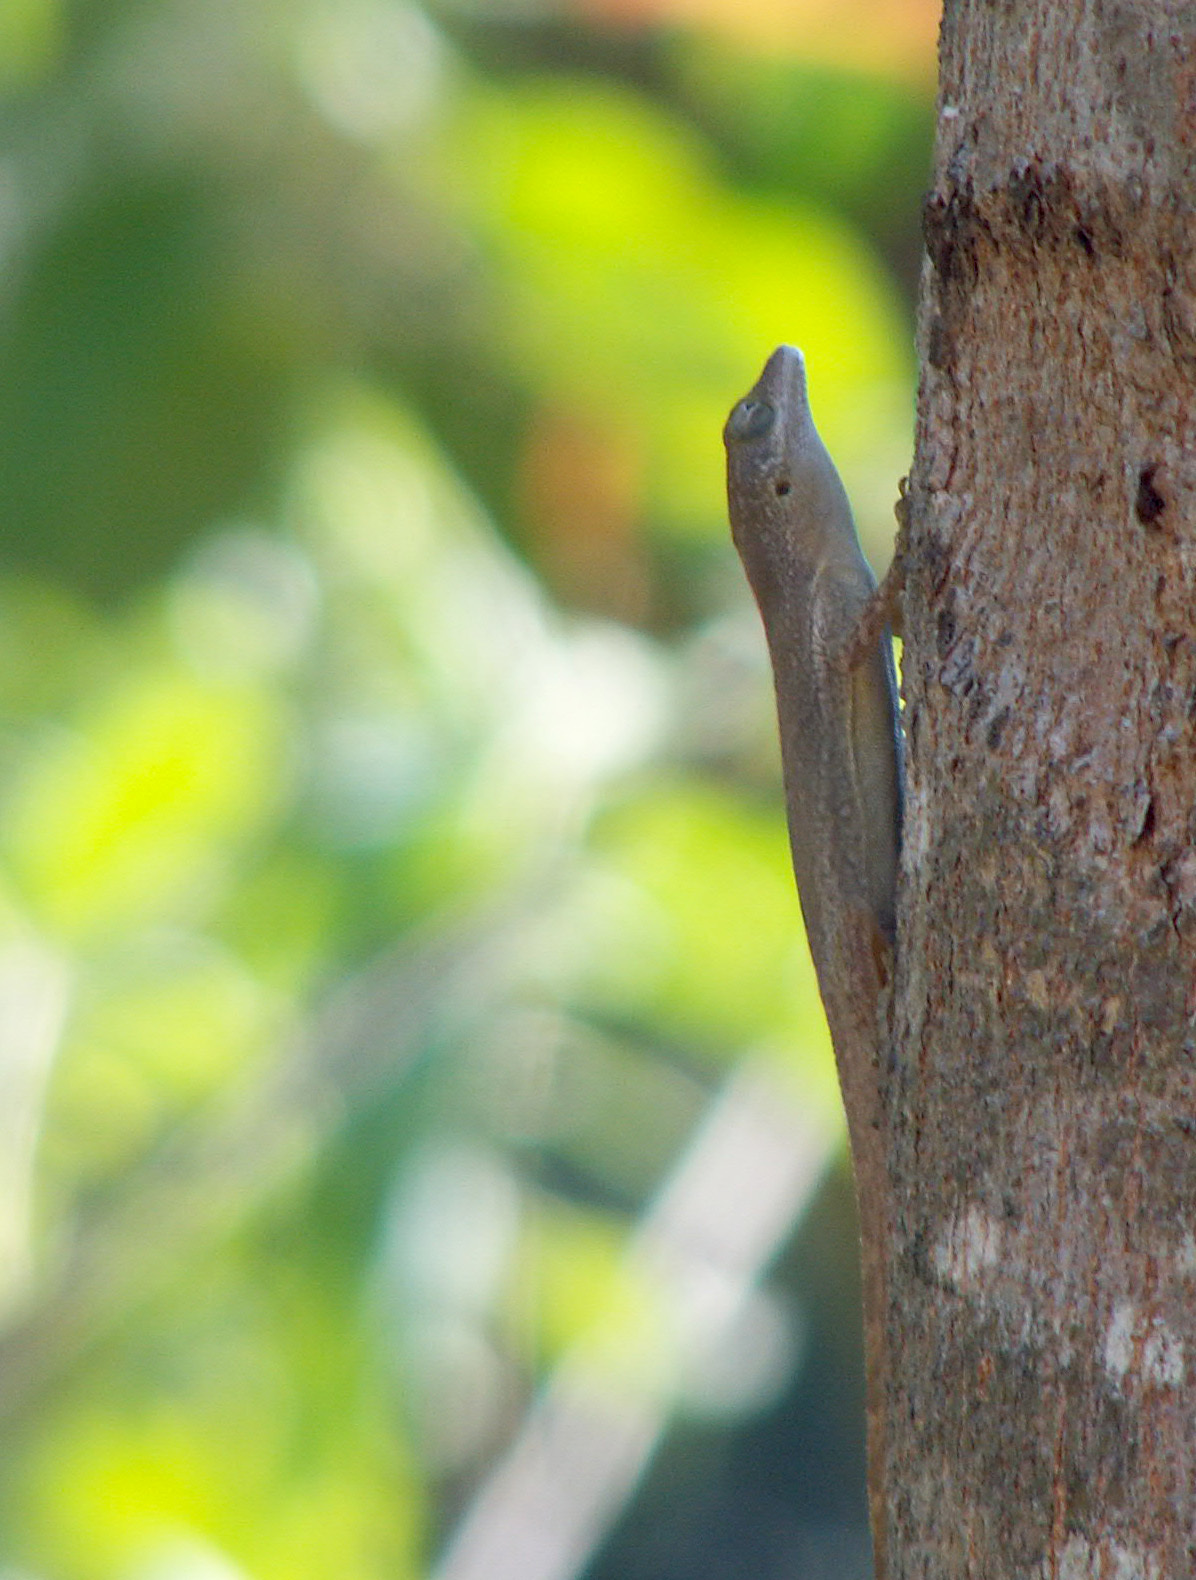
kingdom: Animalia
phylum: Chordata
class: Squamata
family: Dactyloidae
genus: Anolis
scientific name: Anolis terraealtae
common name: Les saintes anole
